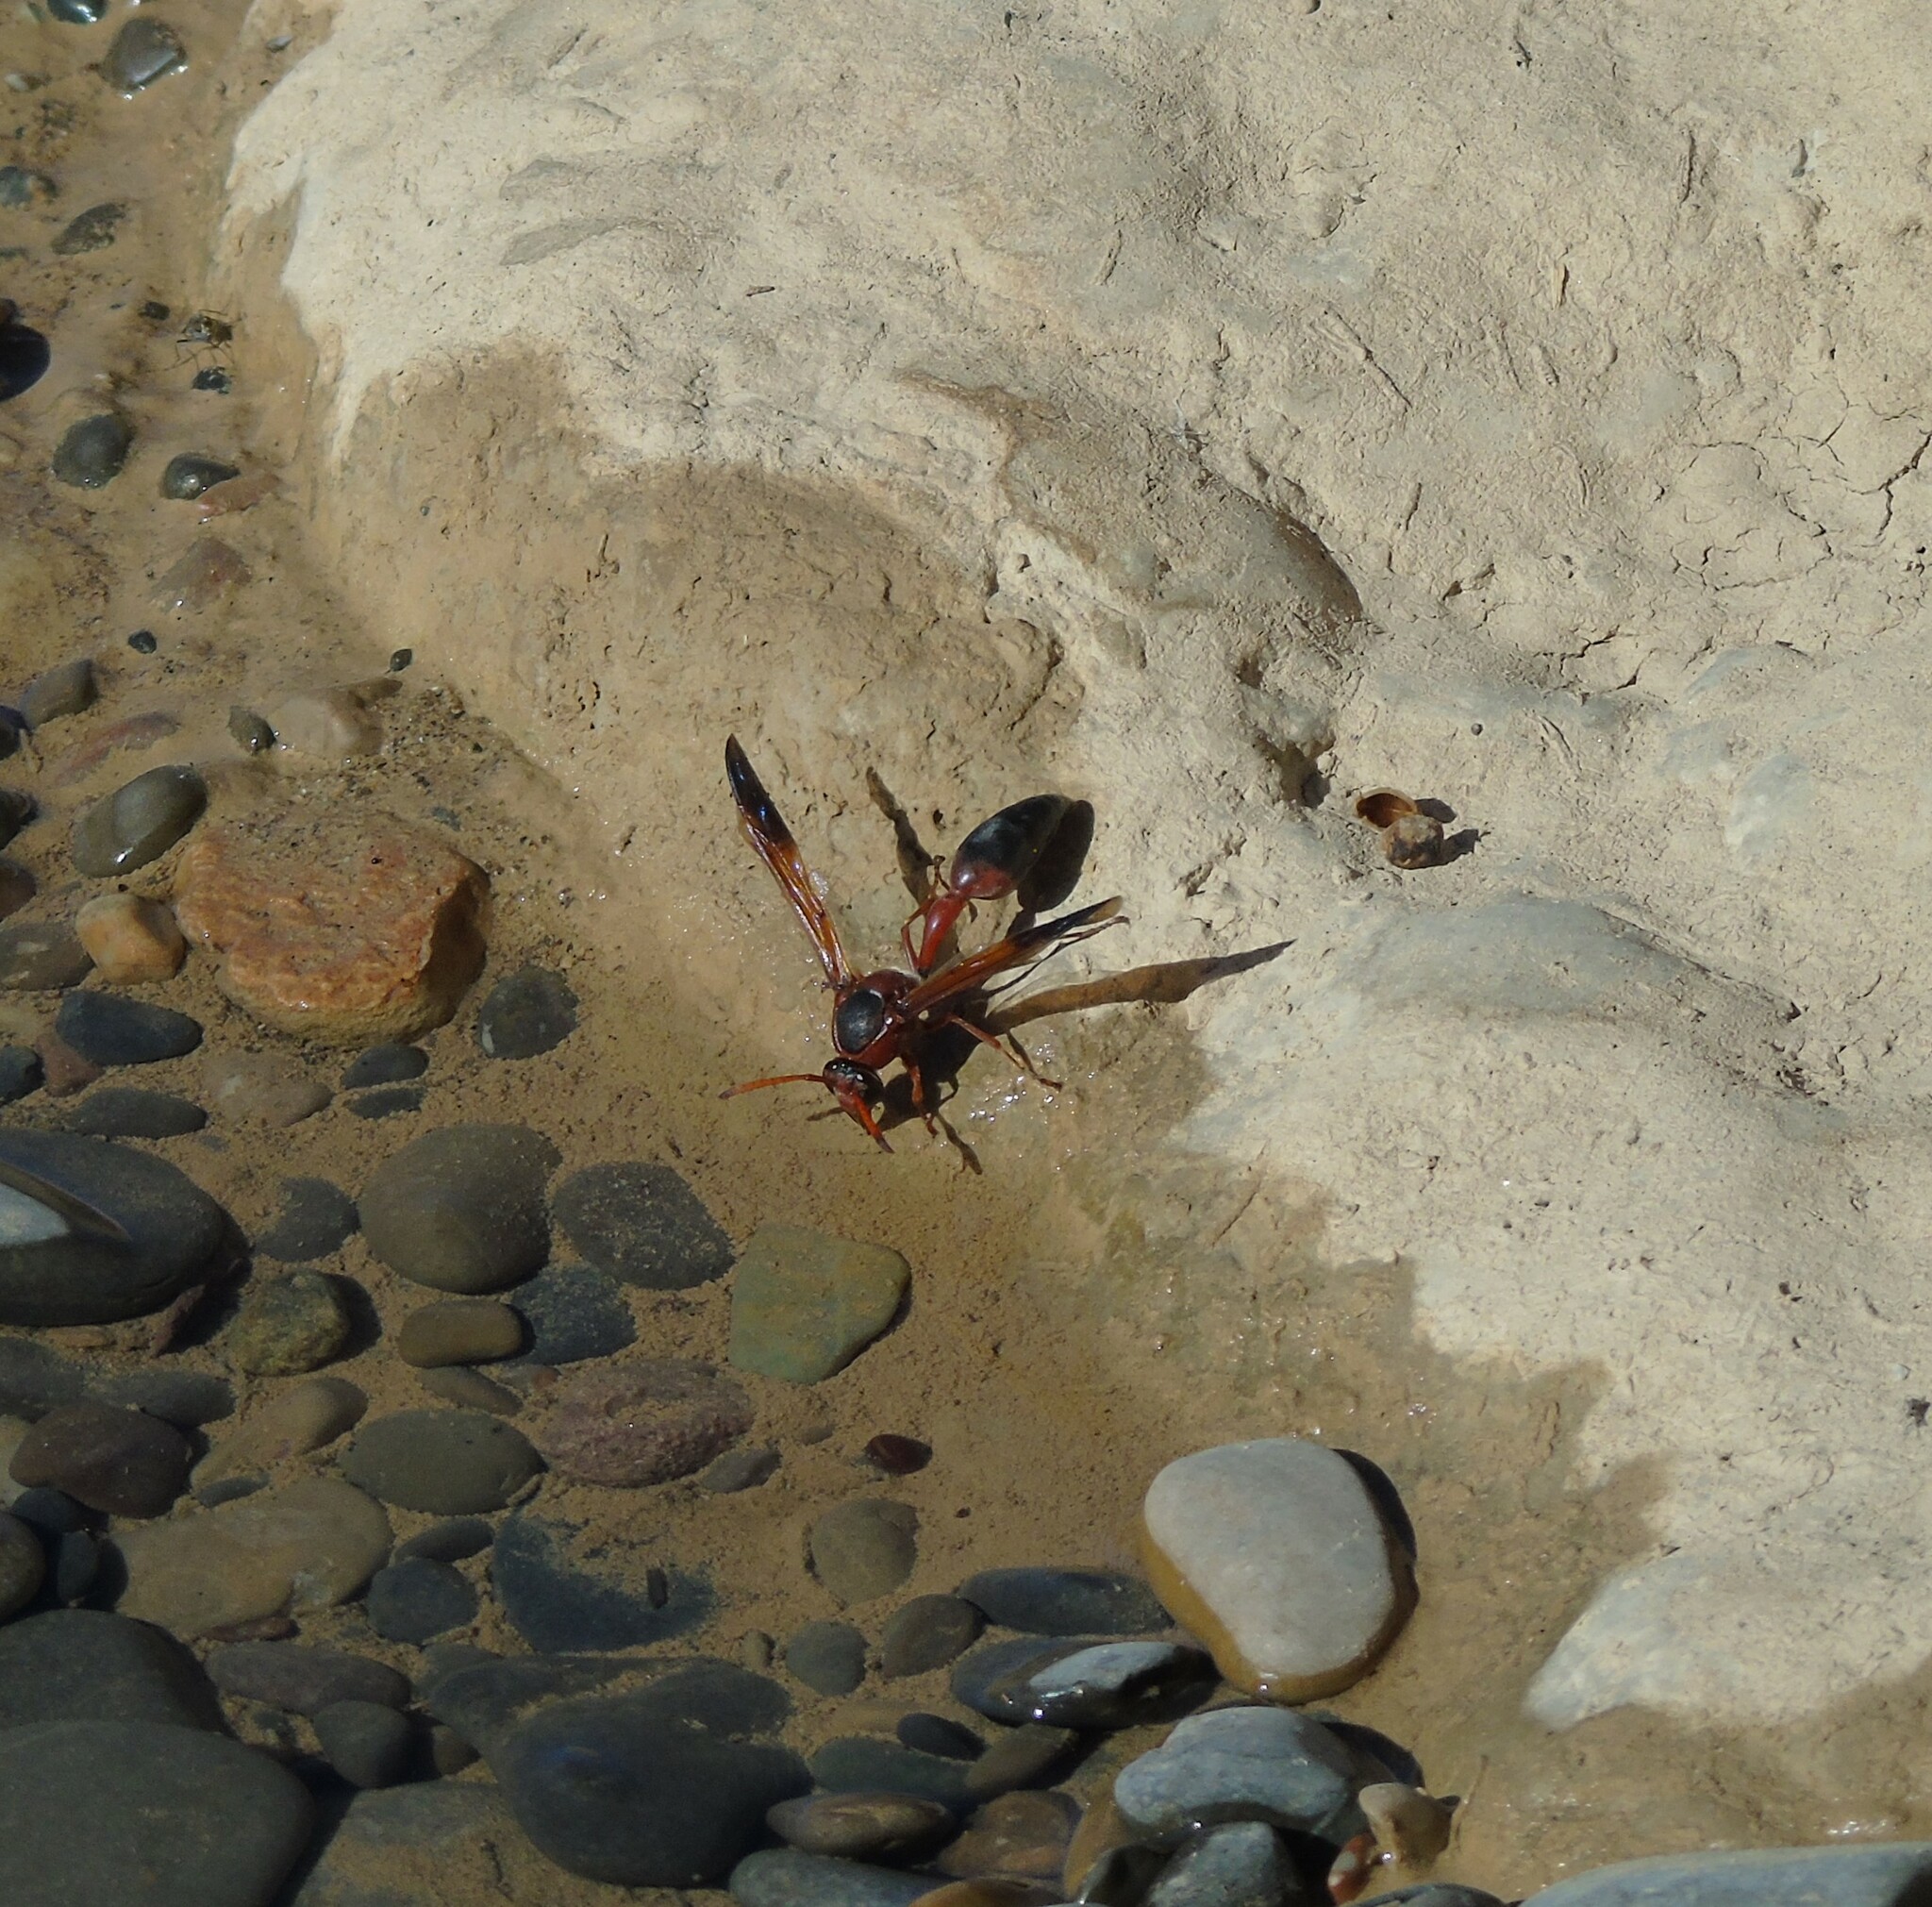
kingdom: Animalia
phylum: Arthropoda
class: Insecta
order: Hymenoptera
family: Eumenidae
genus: Delta
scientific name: Delta dimidiatipenne
